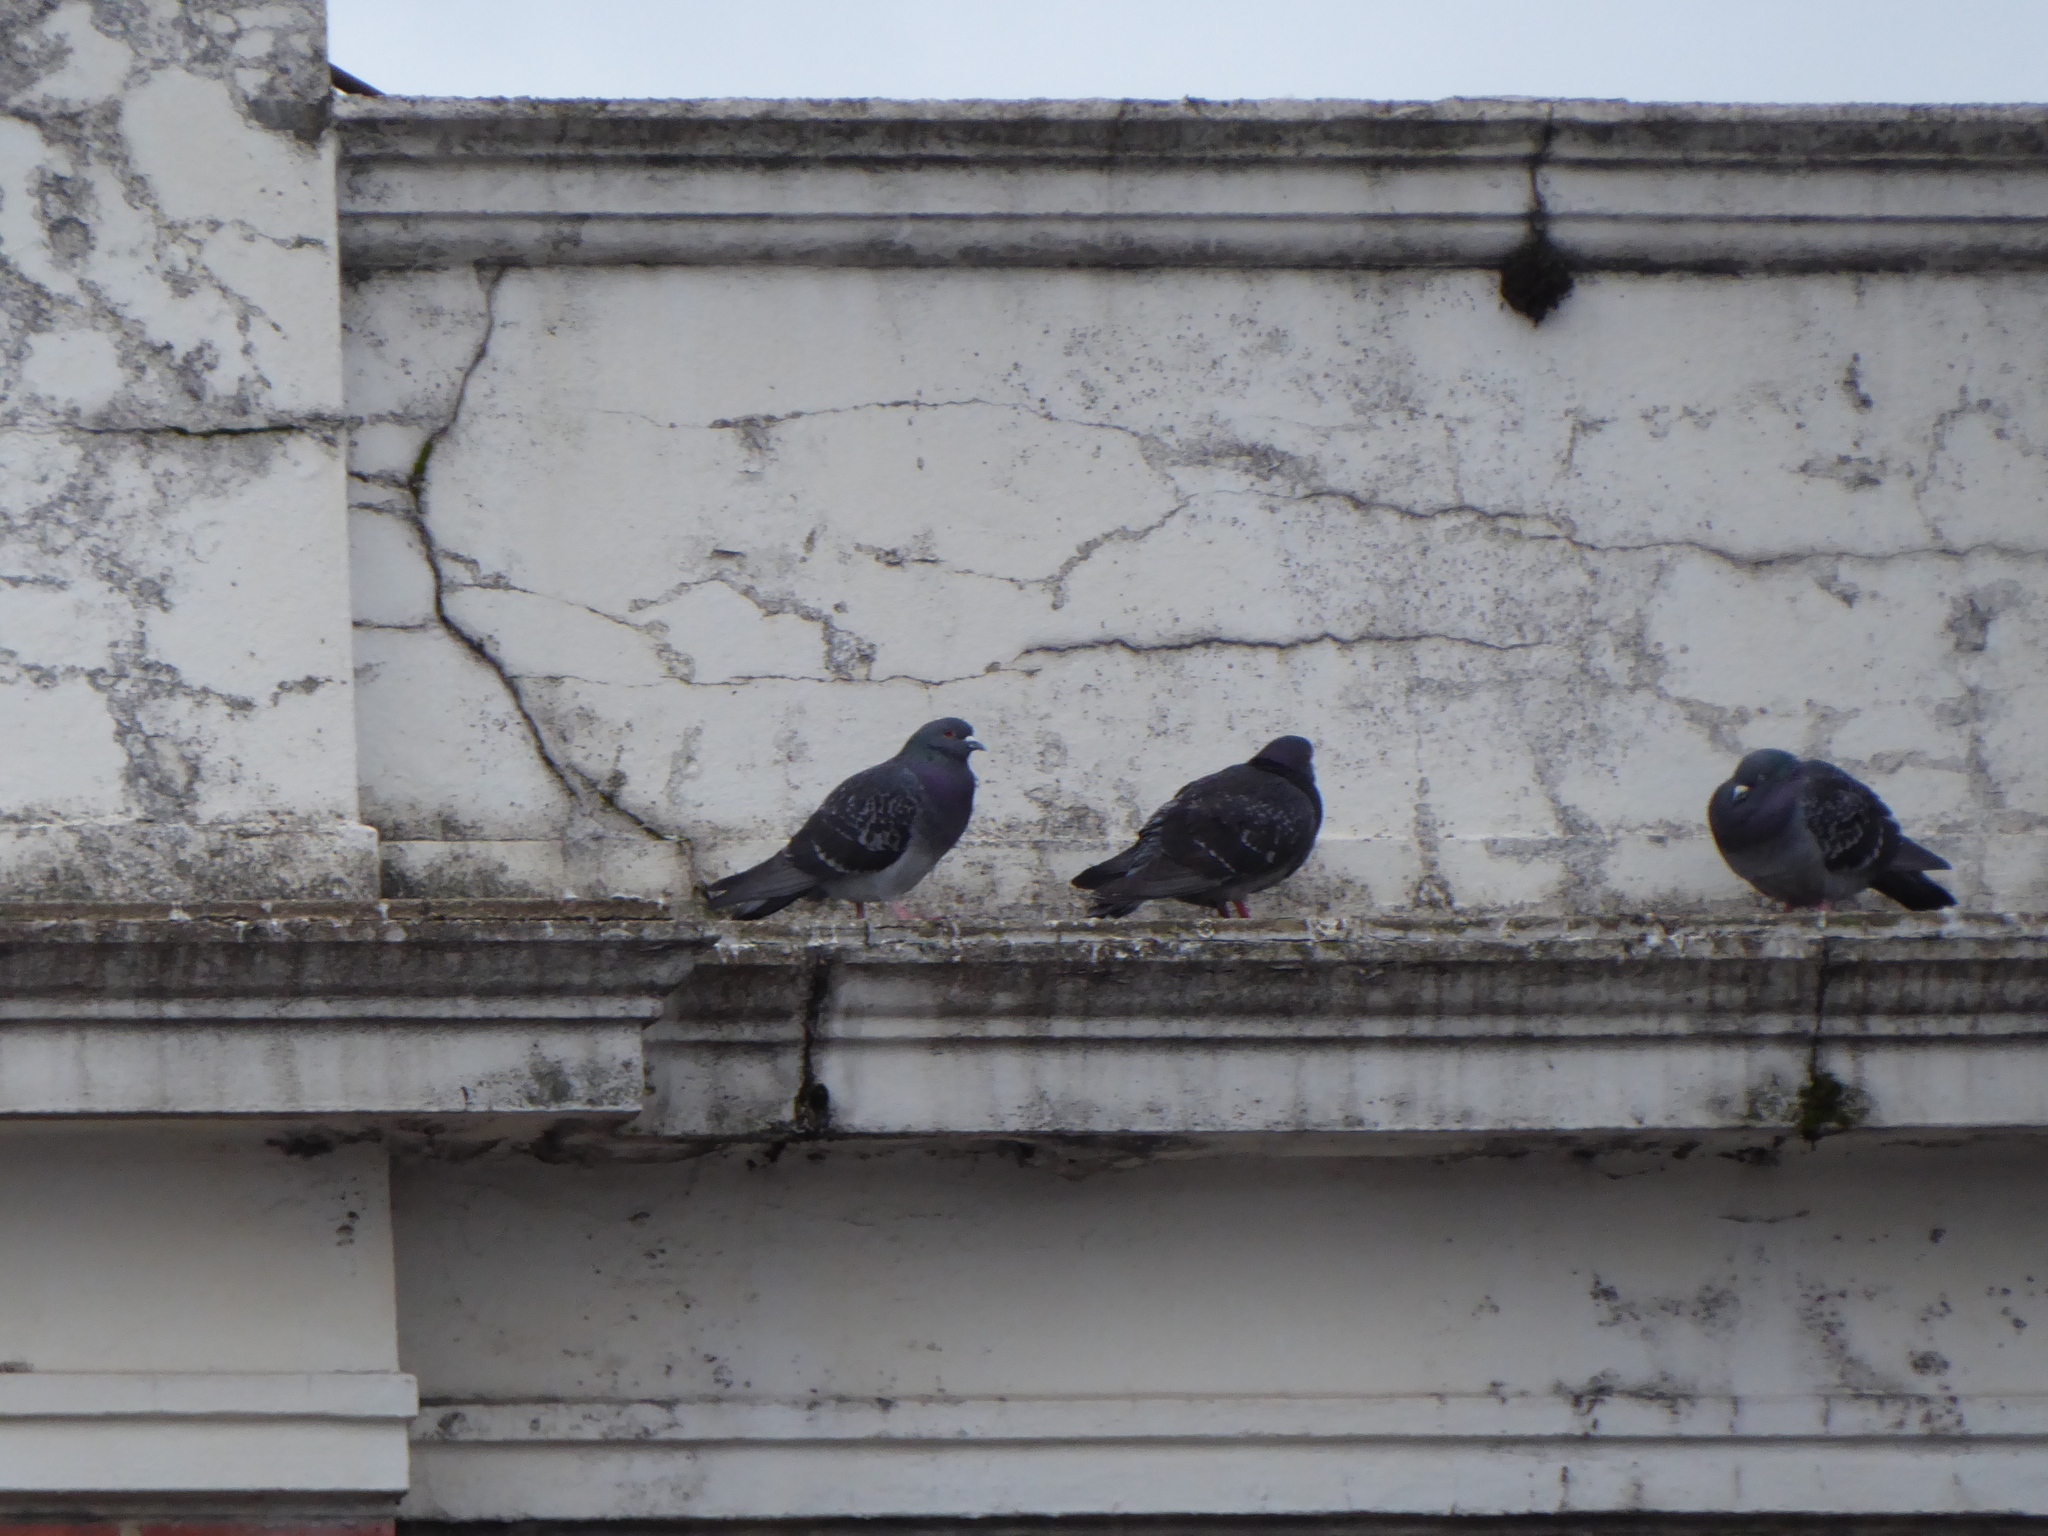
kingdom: Animalia
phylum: Chordata
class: Aves
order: Columbiformes
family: Columbidae
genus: Columba
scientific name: Columba livia
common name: Rock pigeon
